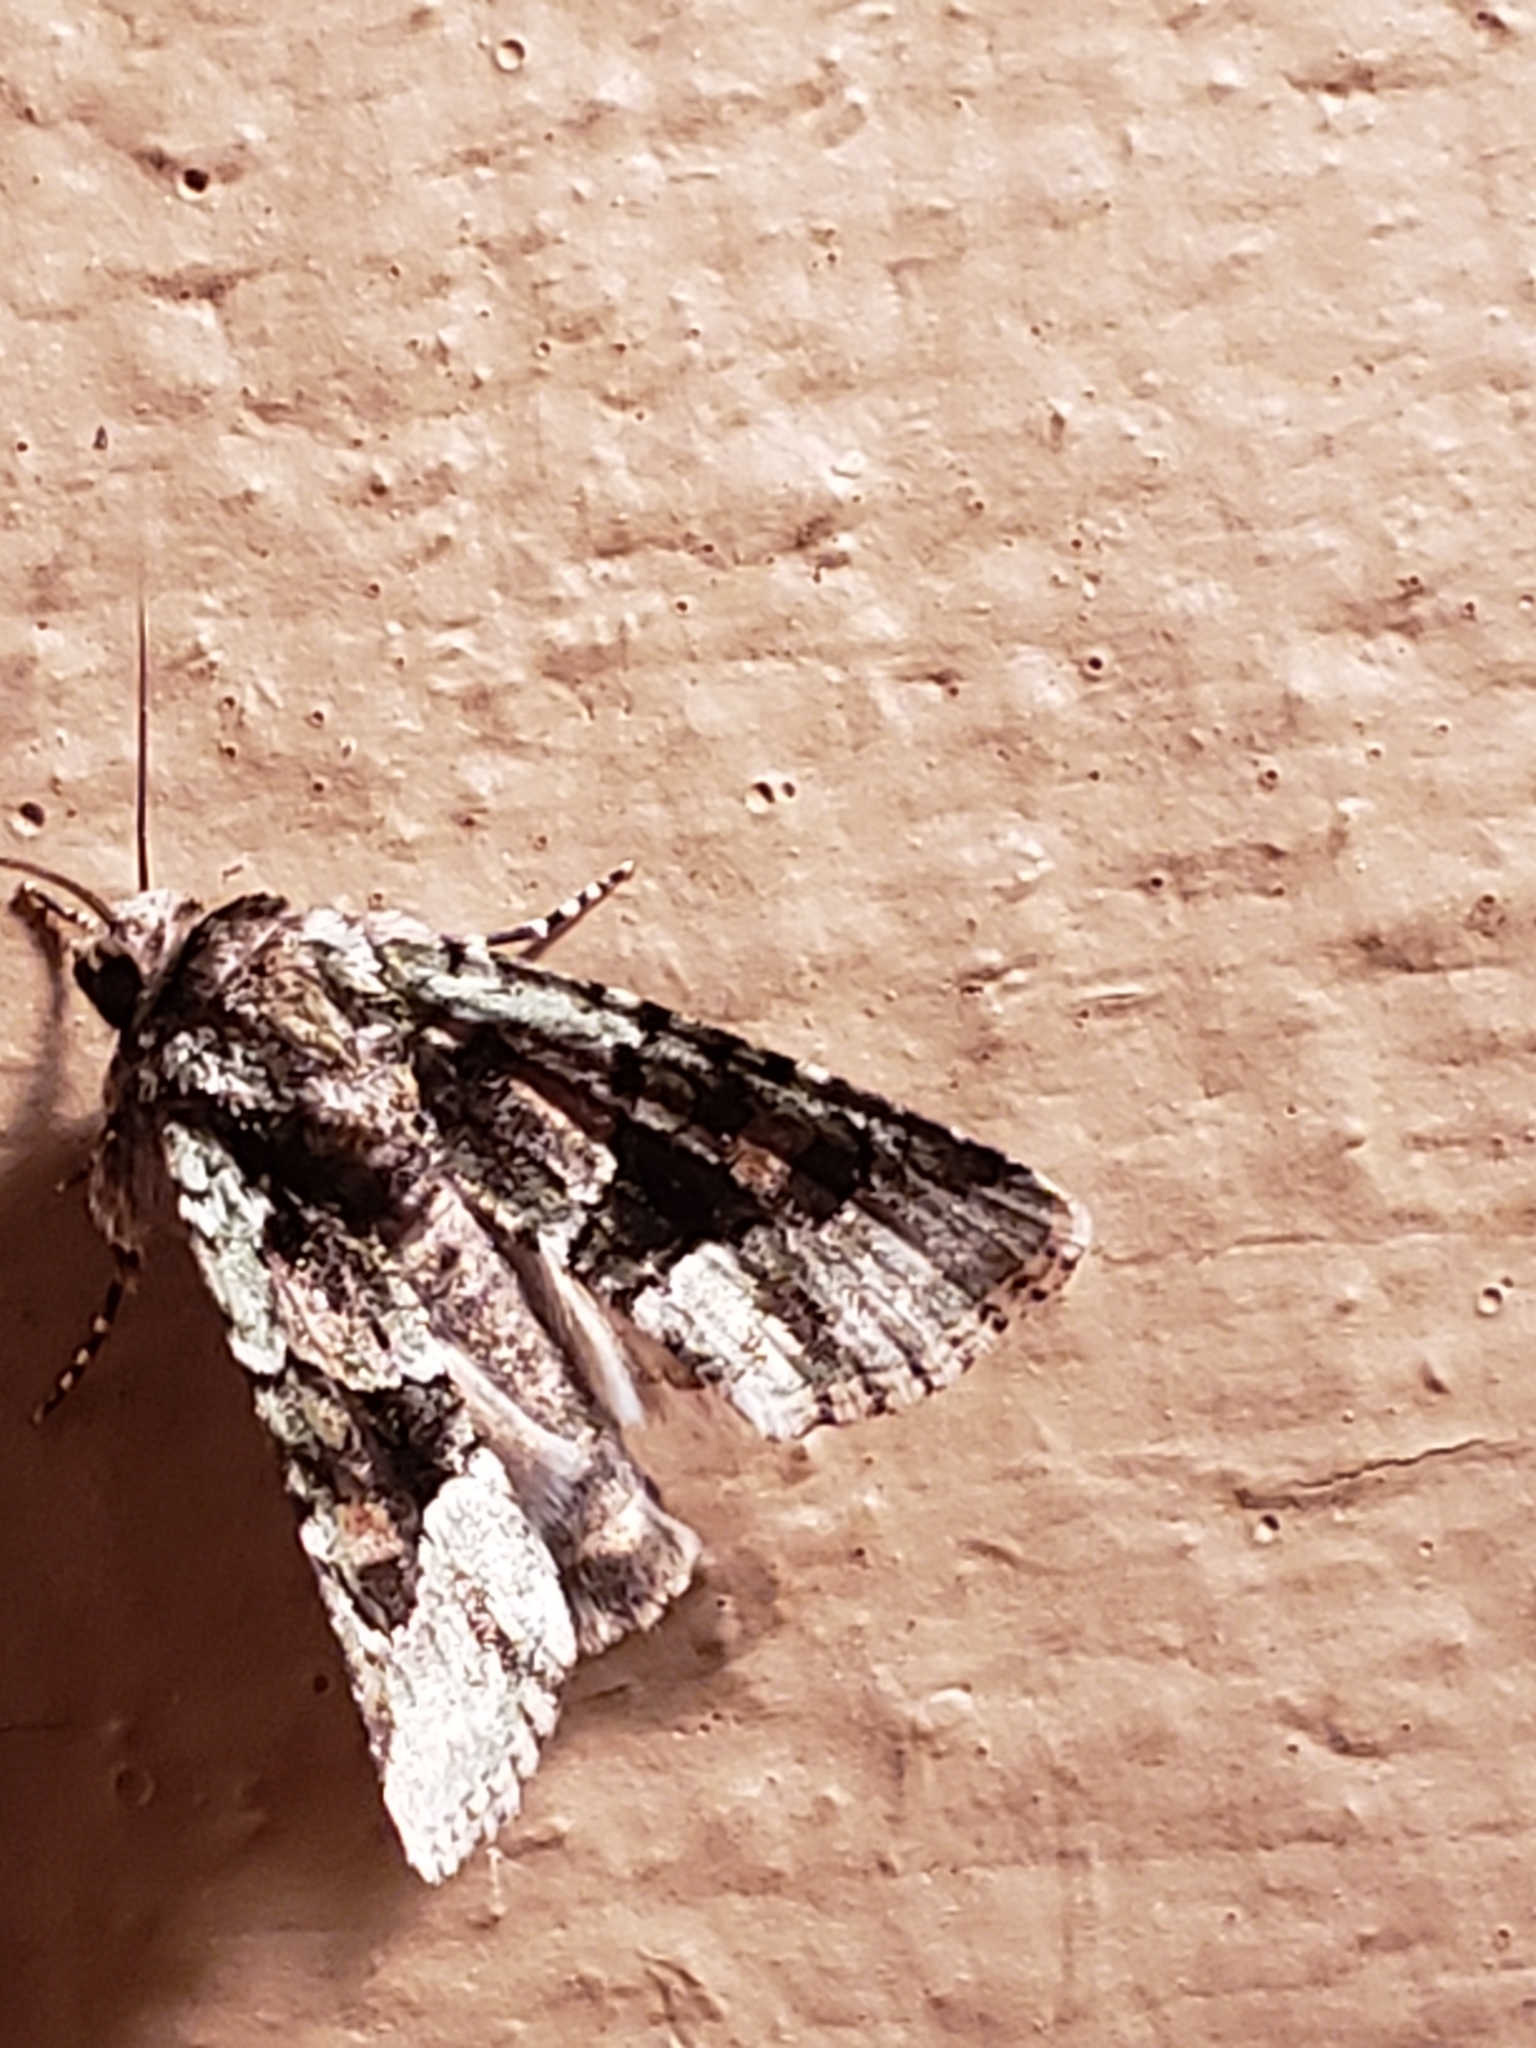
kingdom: Animalia
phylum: Arthropoda
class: Insecta
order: Lepidoptera
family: Noctuidae
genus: Lacinipolia
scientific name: Lacinipolia explicata
